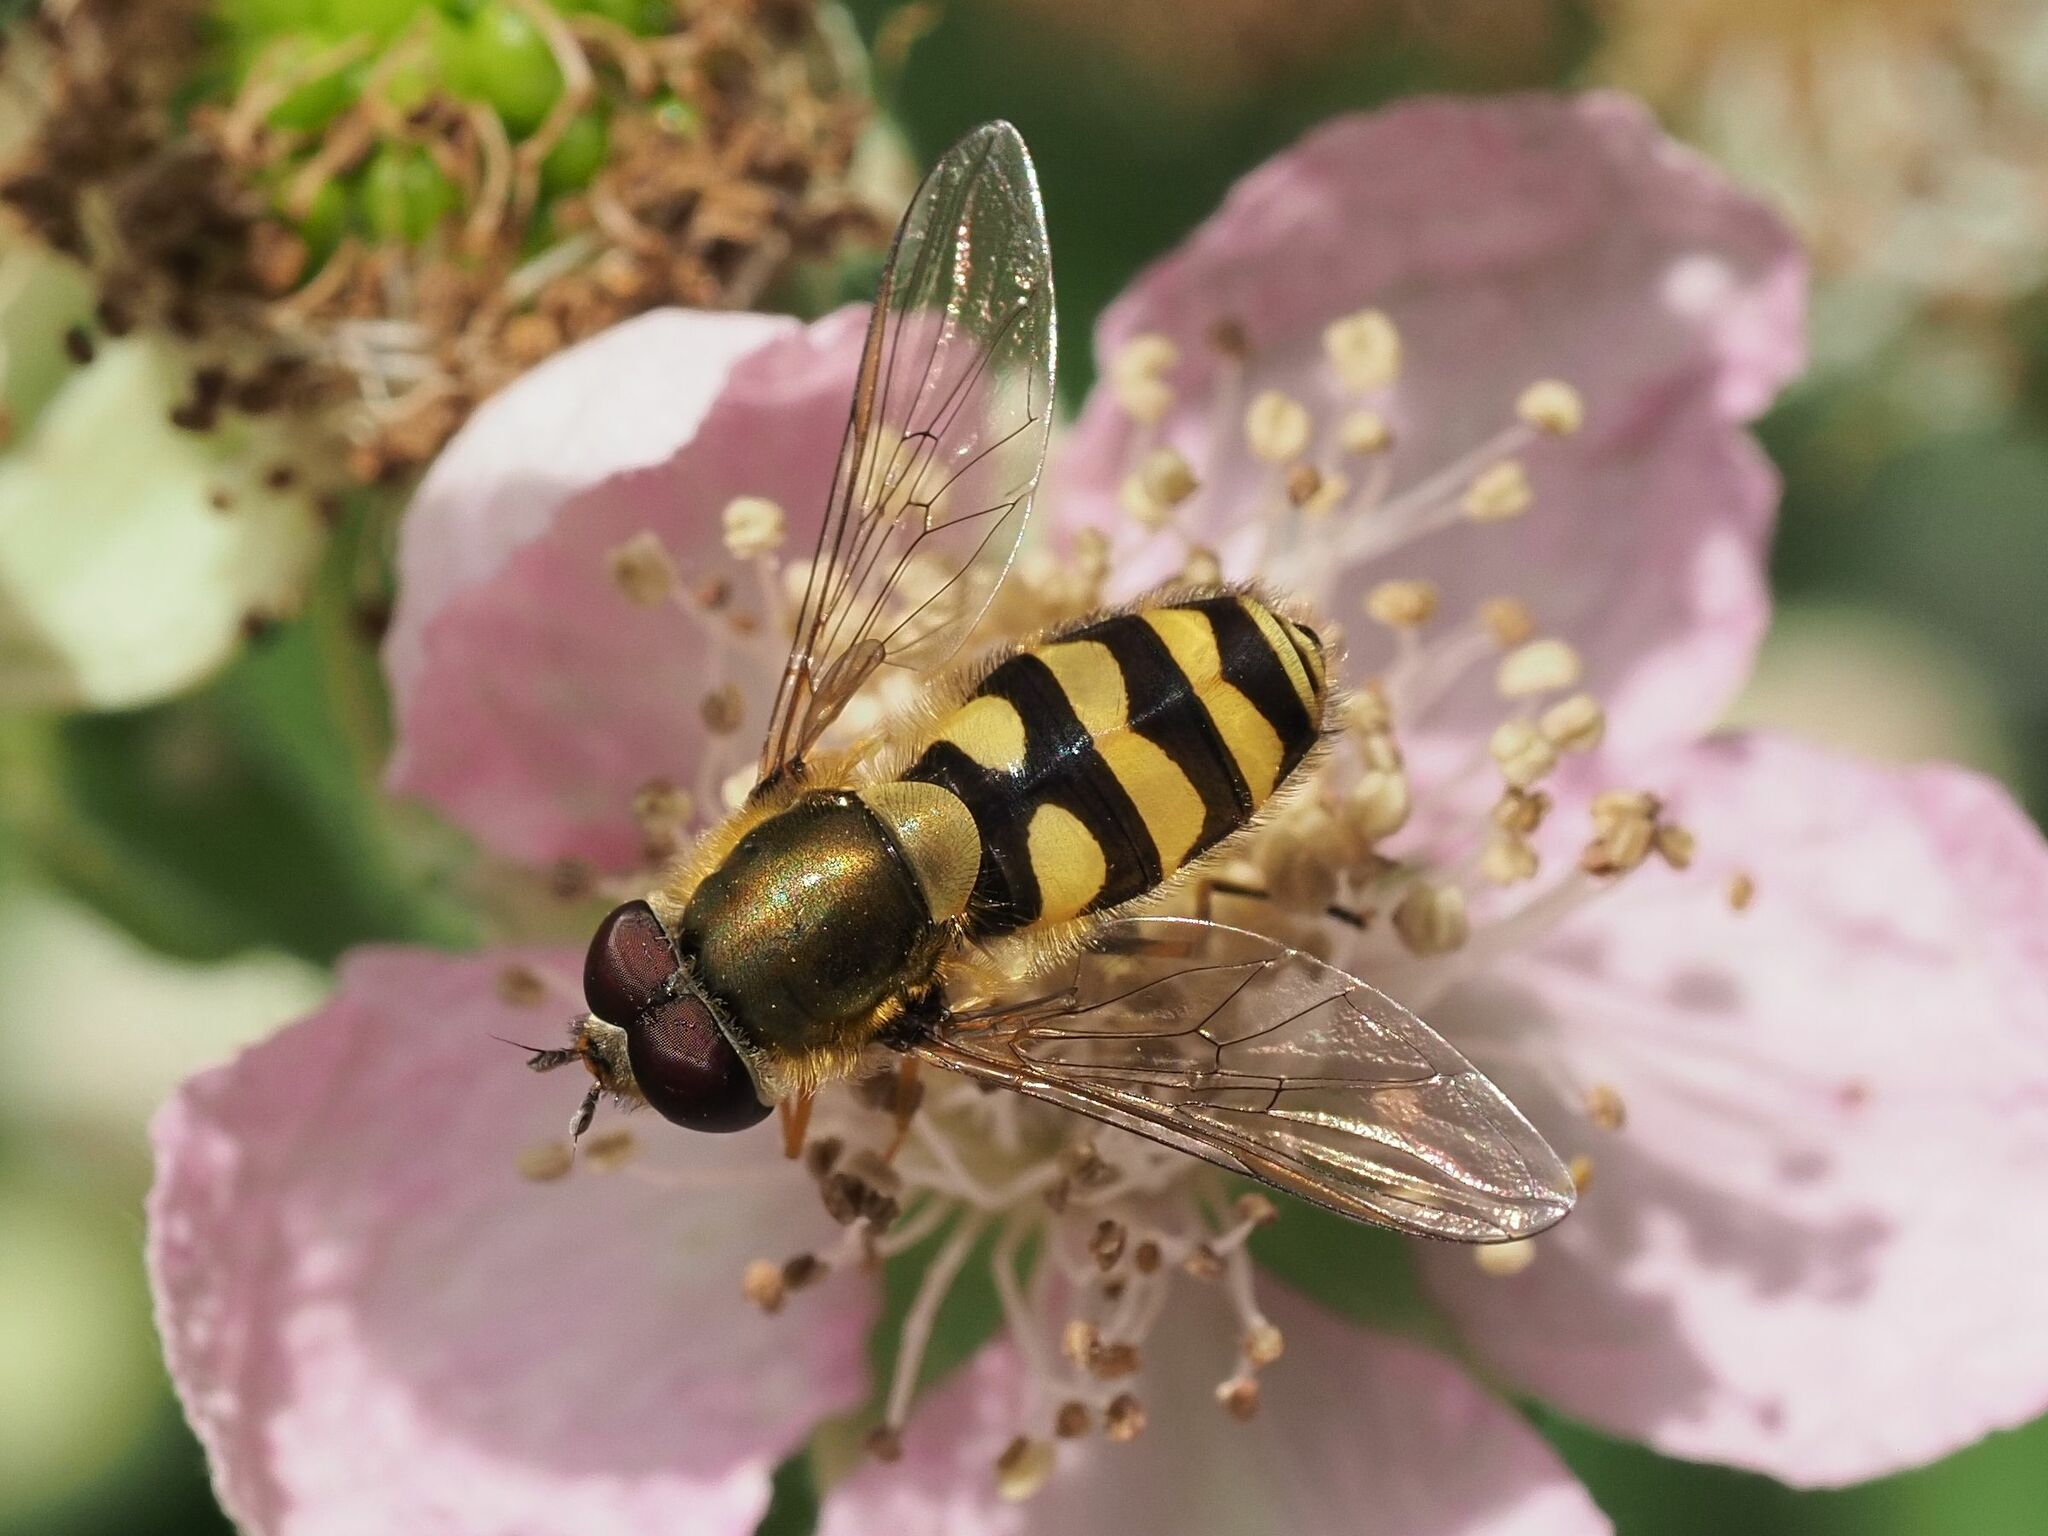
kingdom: Animalia
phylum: Arthropoda
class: Insecta
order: Diptera
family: Syrphidae
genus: Syrphus
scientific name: Syrphus
